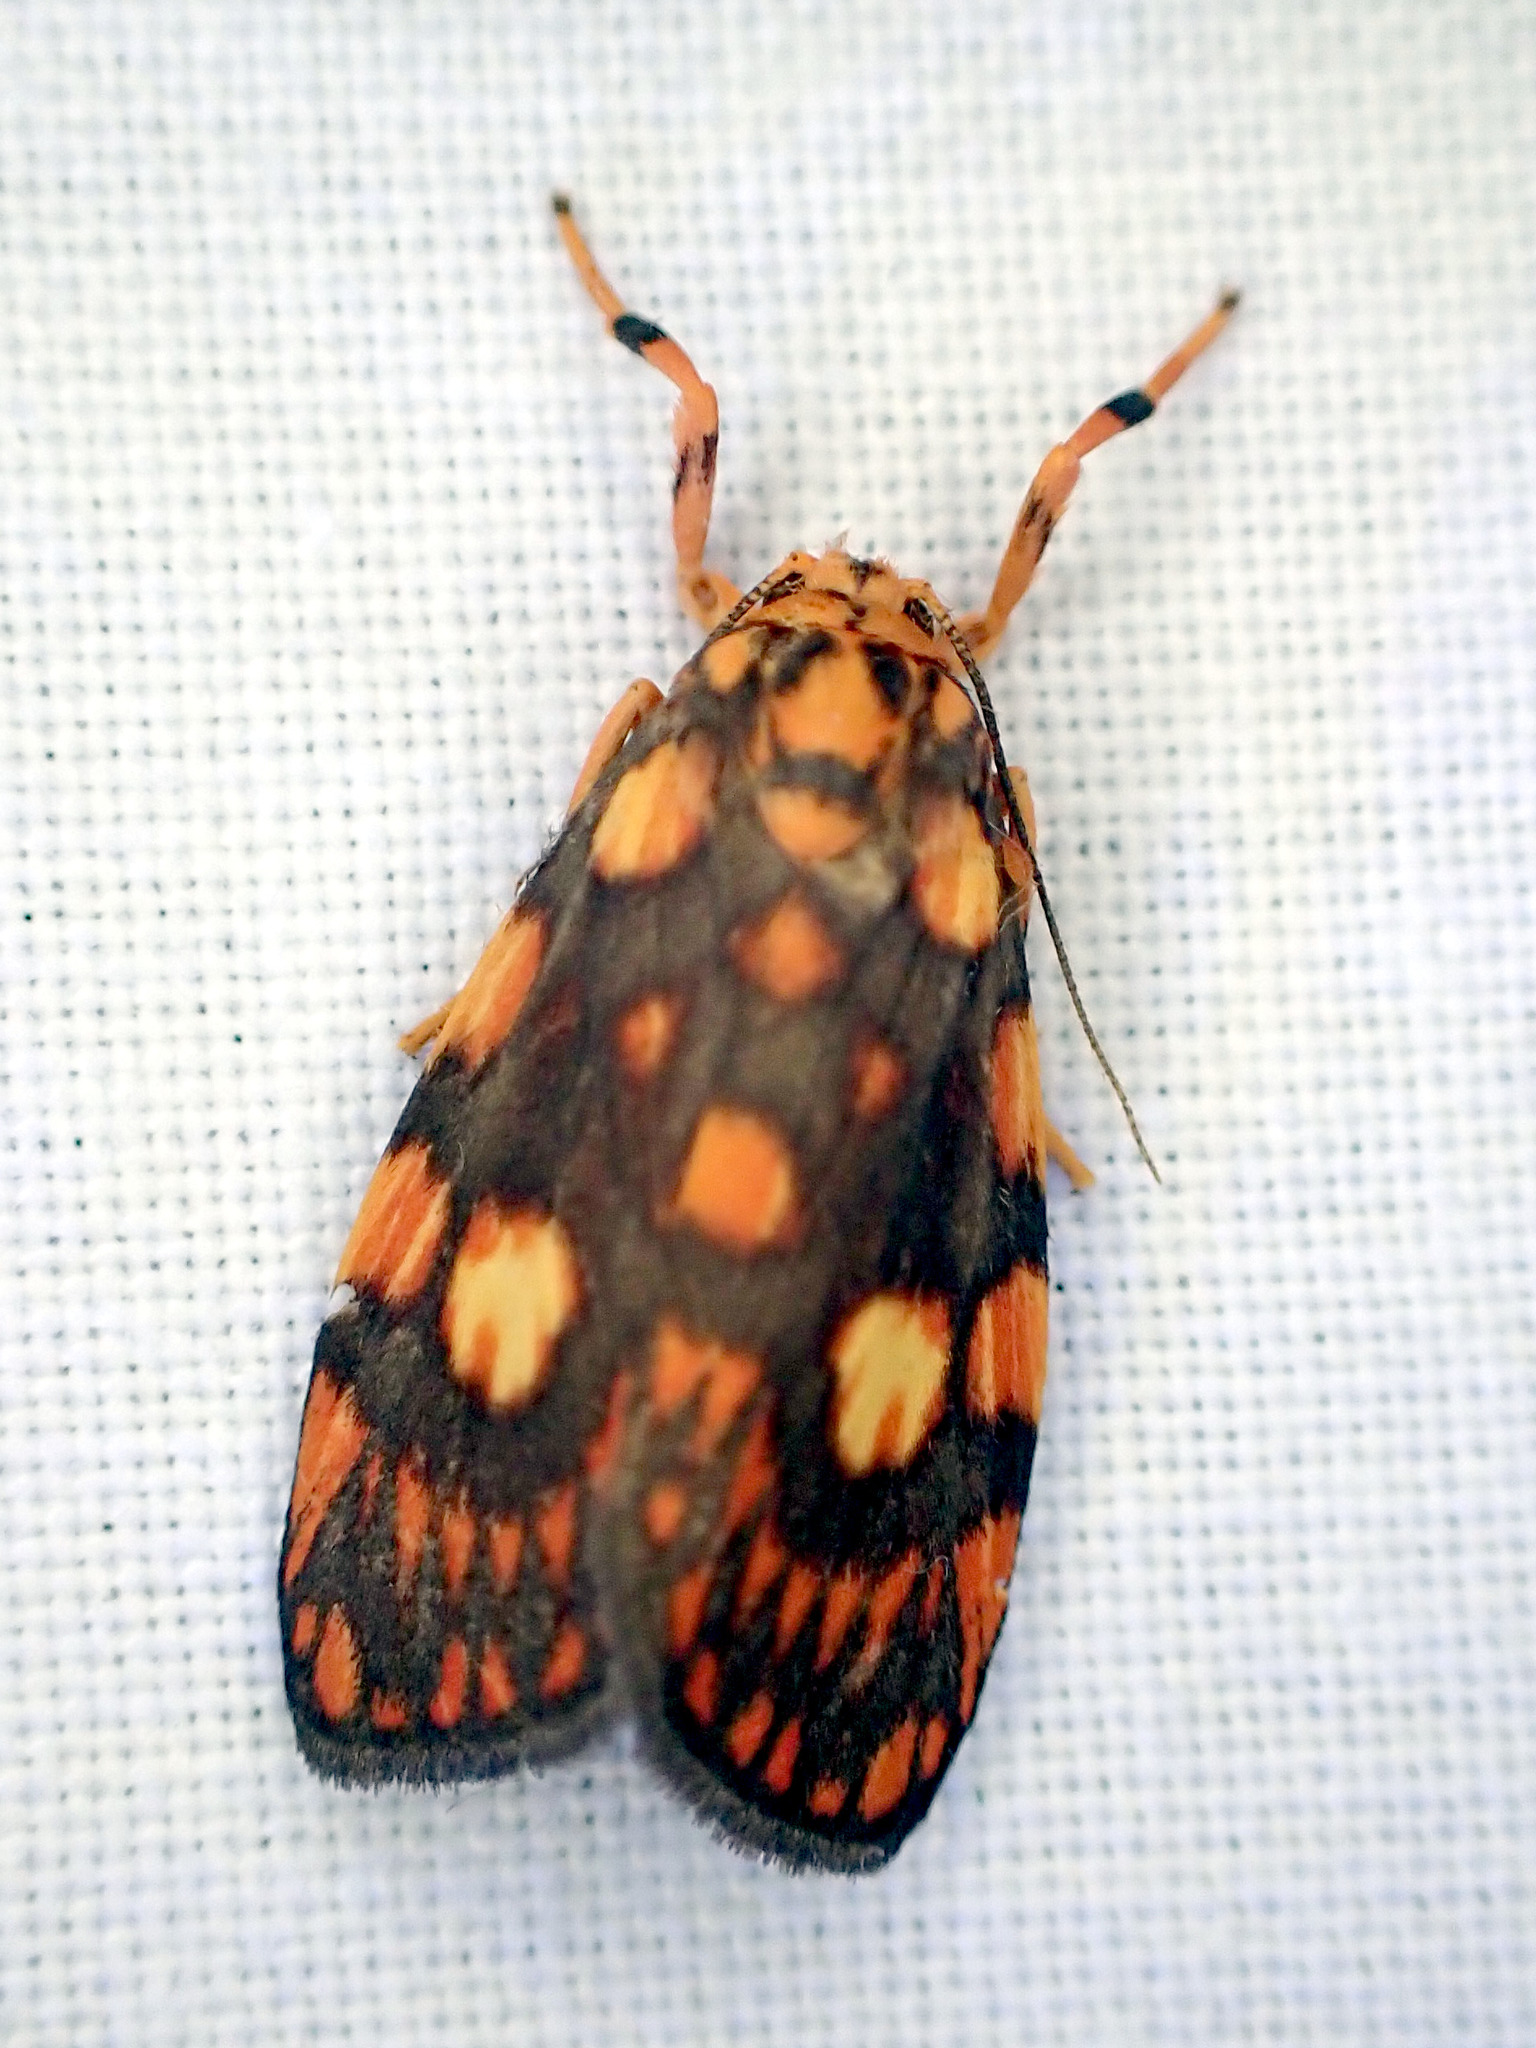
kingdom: Animalia
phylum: Arthropoda
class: Insecta
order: Lepidoptera
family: Erebidae
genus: Cyme
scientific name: Cyme reticulata
